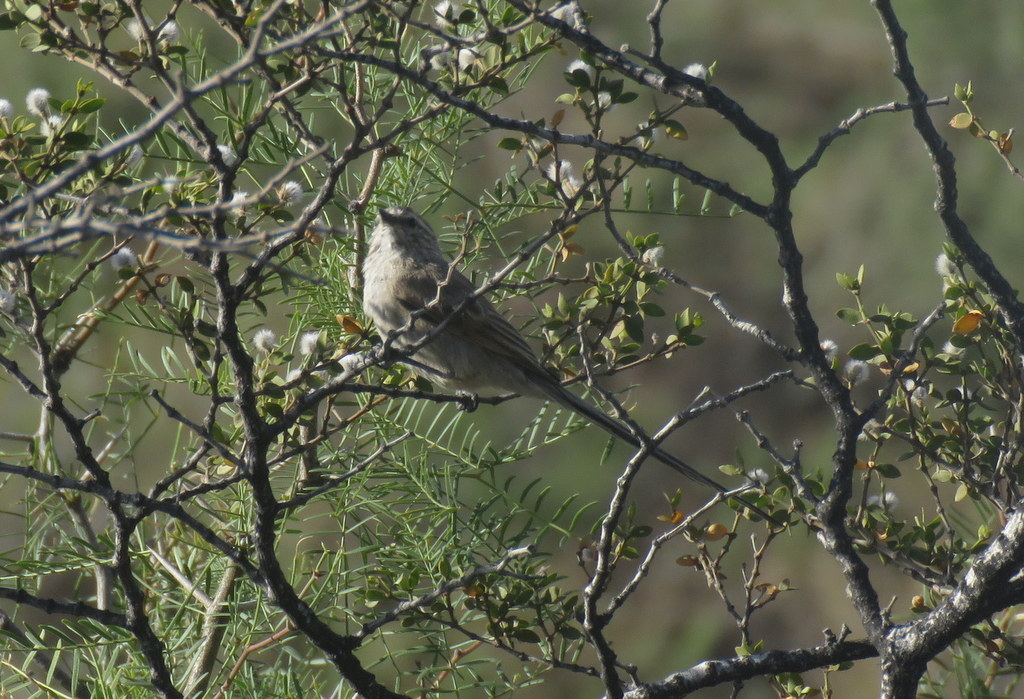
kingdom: Animalia
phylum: Chordata
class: Aves
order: Passeriformes
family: Furnariidae
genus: Leptasthenura
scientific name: Leptasthenura aegithaloides
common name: Plain-mantled tit-spinetail
